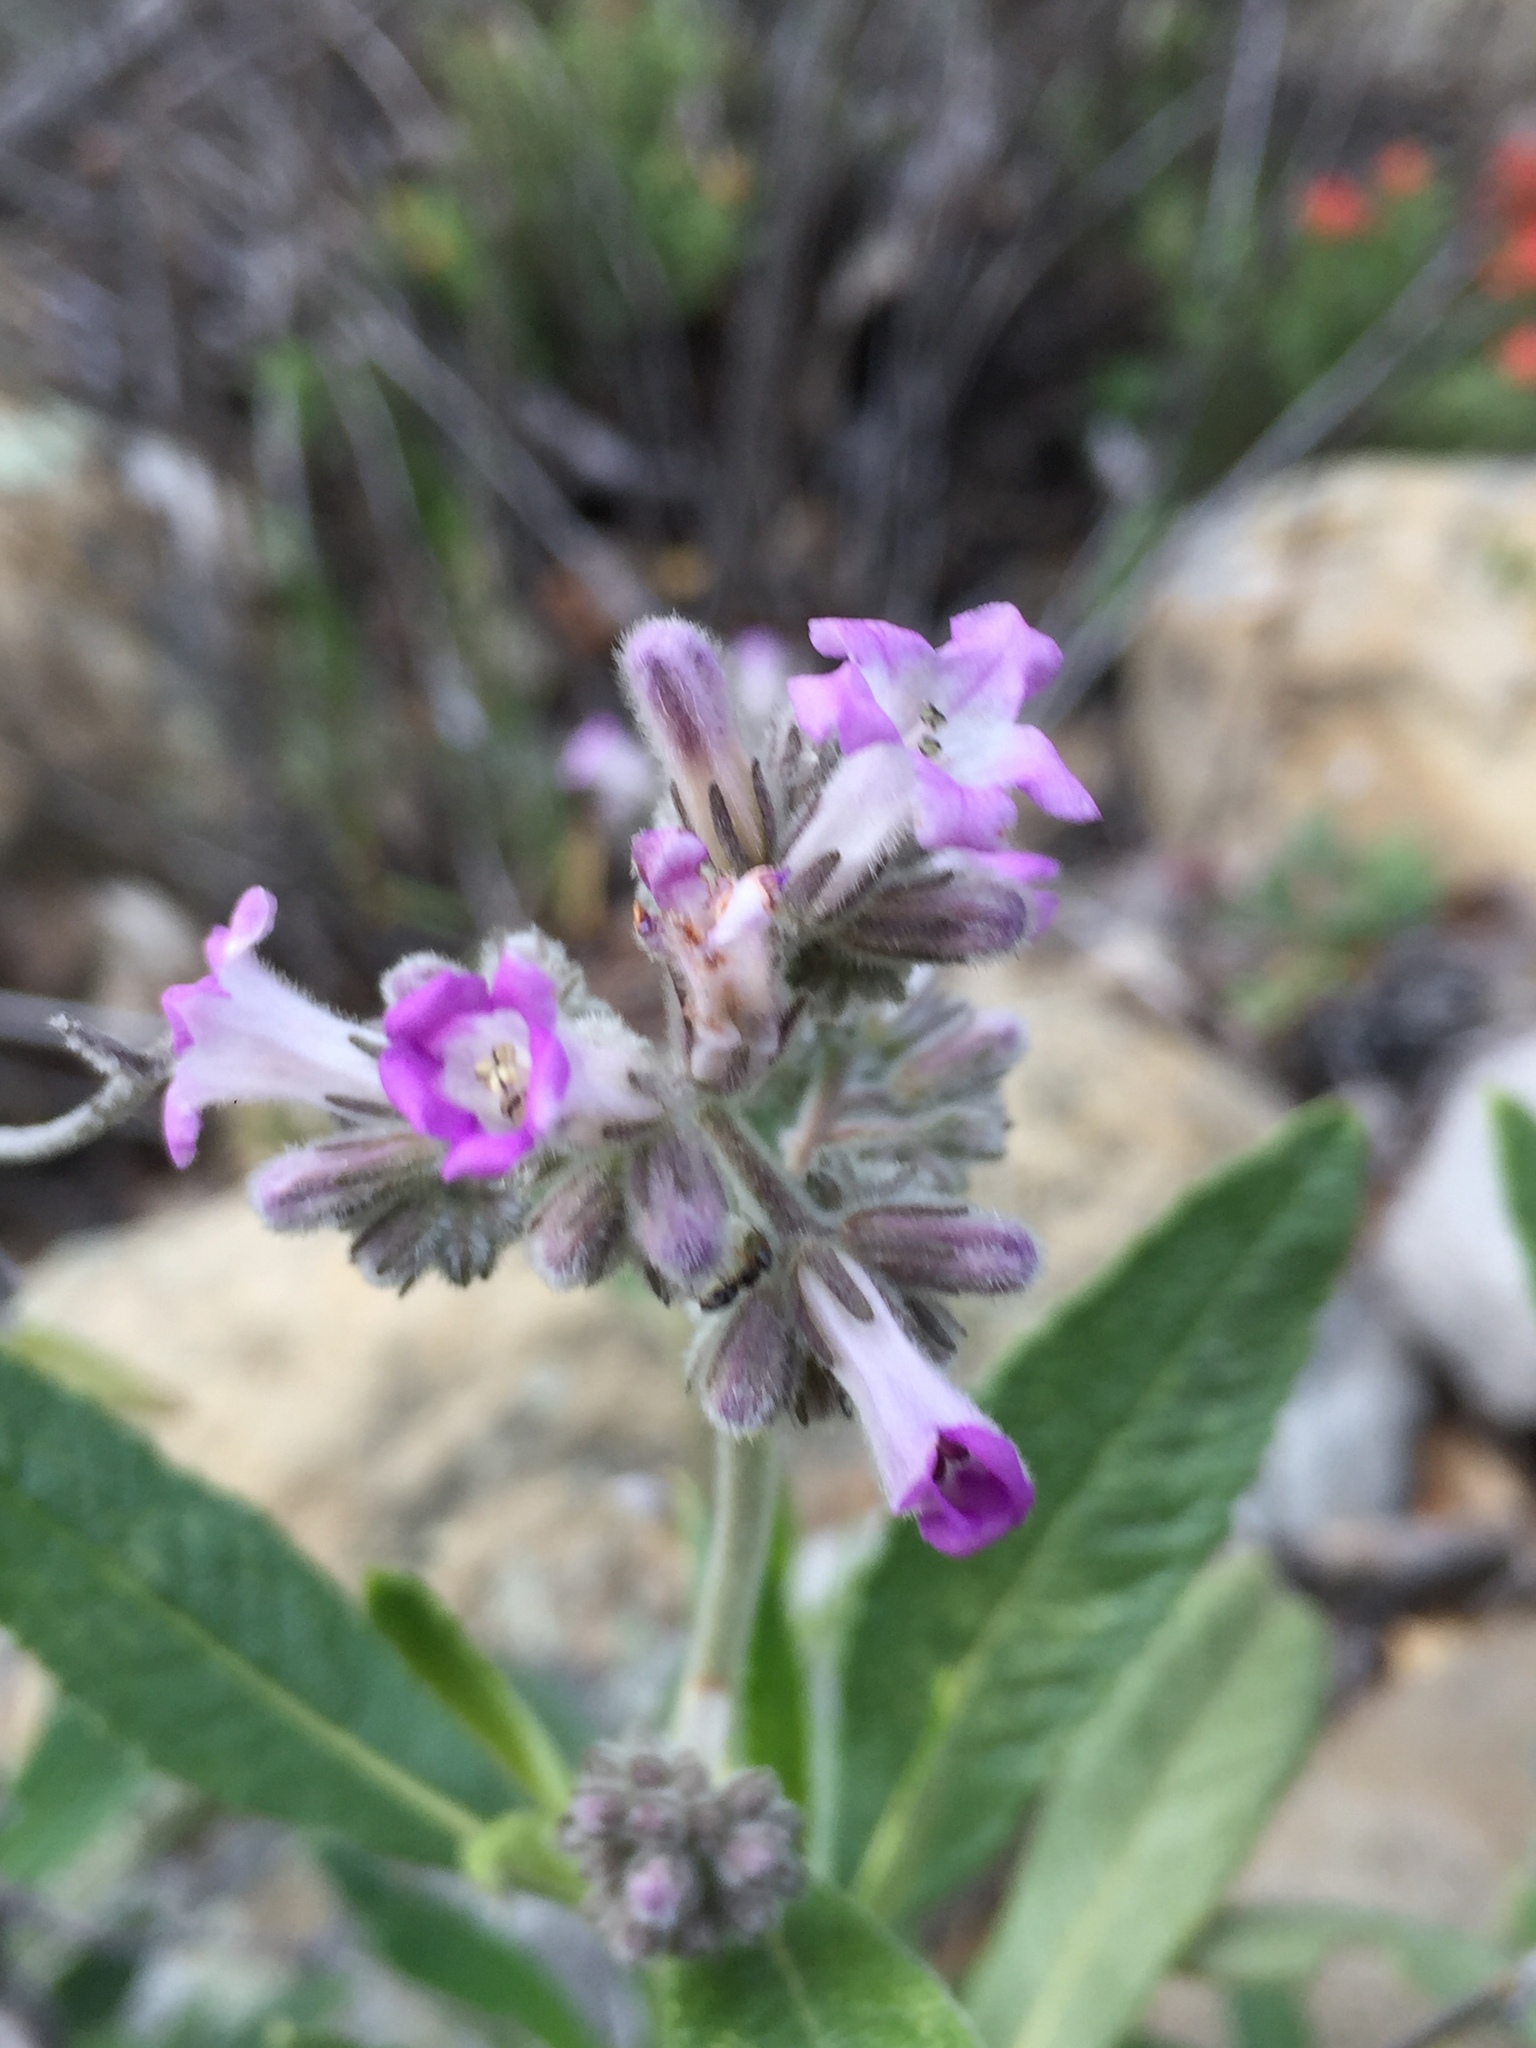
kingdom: Plantae
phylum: Tracheophyta
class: Magnoliopsida
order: Boraginales
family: Namaceae
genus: Eriodictyon
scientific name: Eriodictyon crassifolium
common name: Thick-leaf yerba-santa
